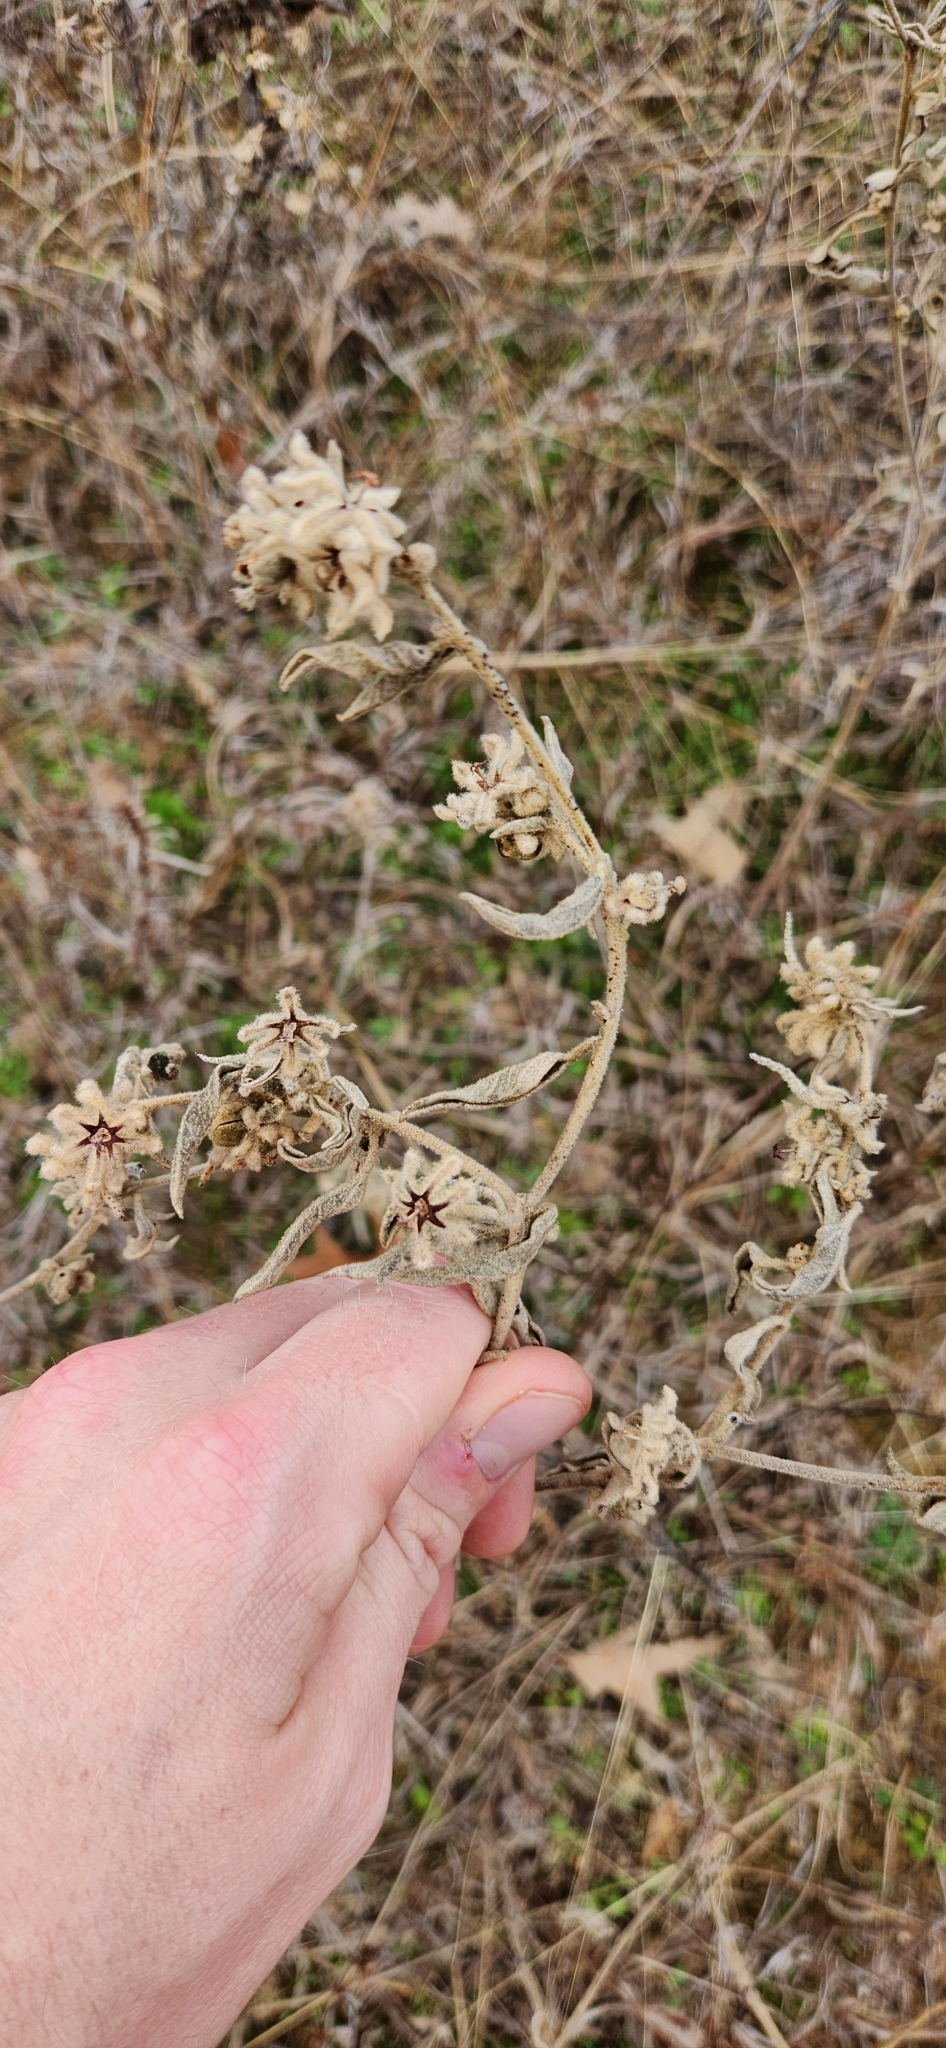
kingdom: Plantae
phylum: Tracheophyta
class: Magnoliopsida
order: Malpighiales
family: Euphorbiaceae
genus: Croton
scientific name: Croton lindheimeri
